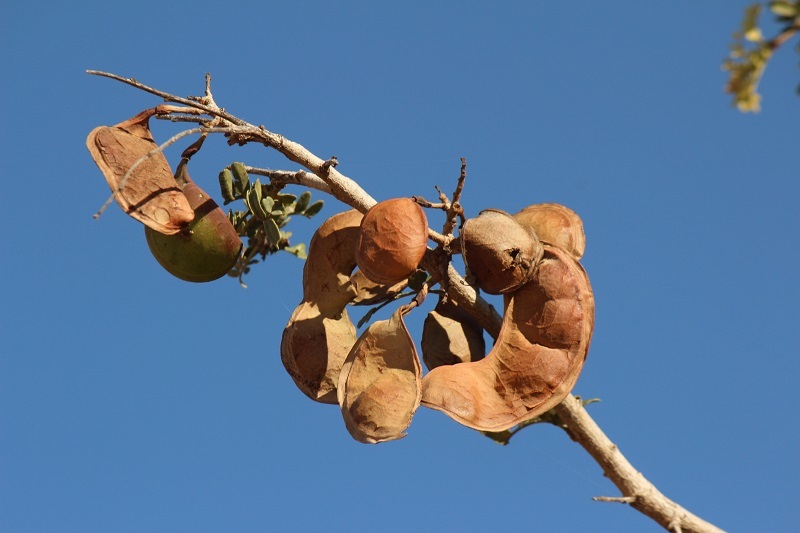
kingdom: Plantae
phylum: Tracheophyta
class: Magnoliopsida
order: Fabales
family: Fabaceae
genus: Schotia
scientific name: Schotia afra
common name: Hottentot's bean
